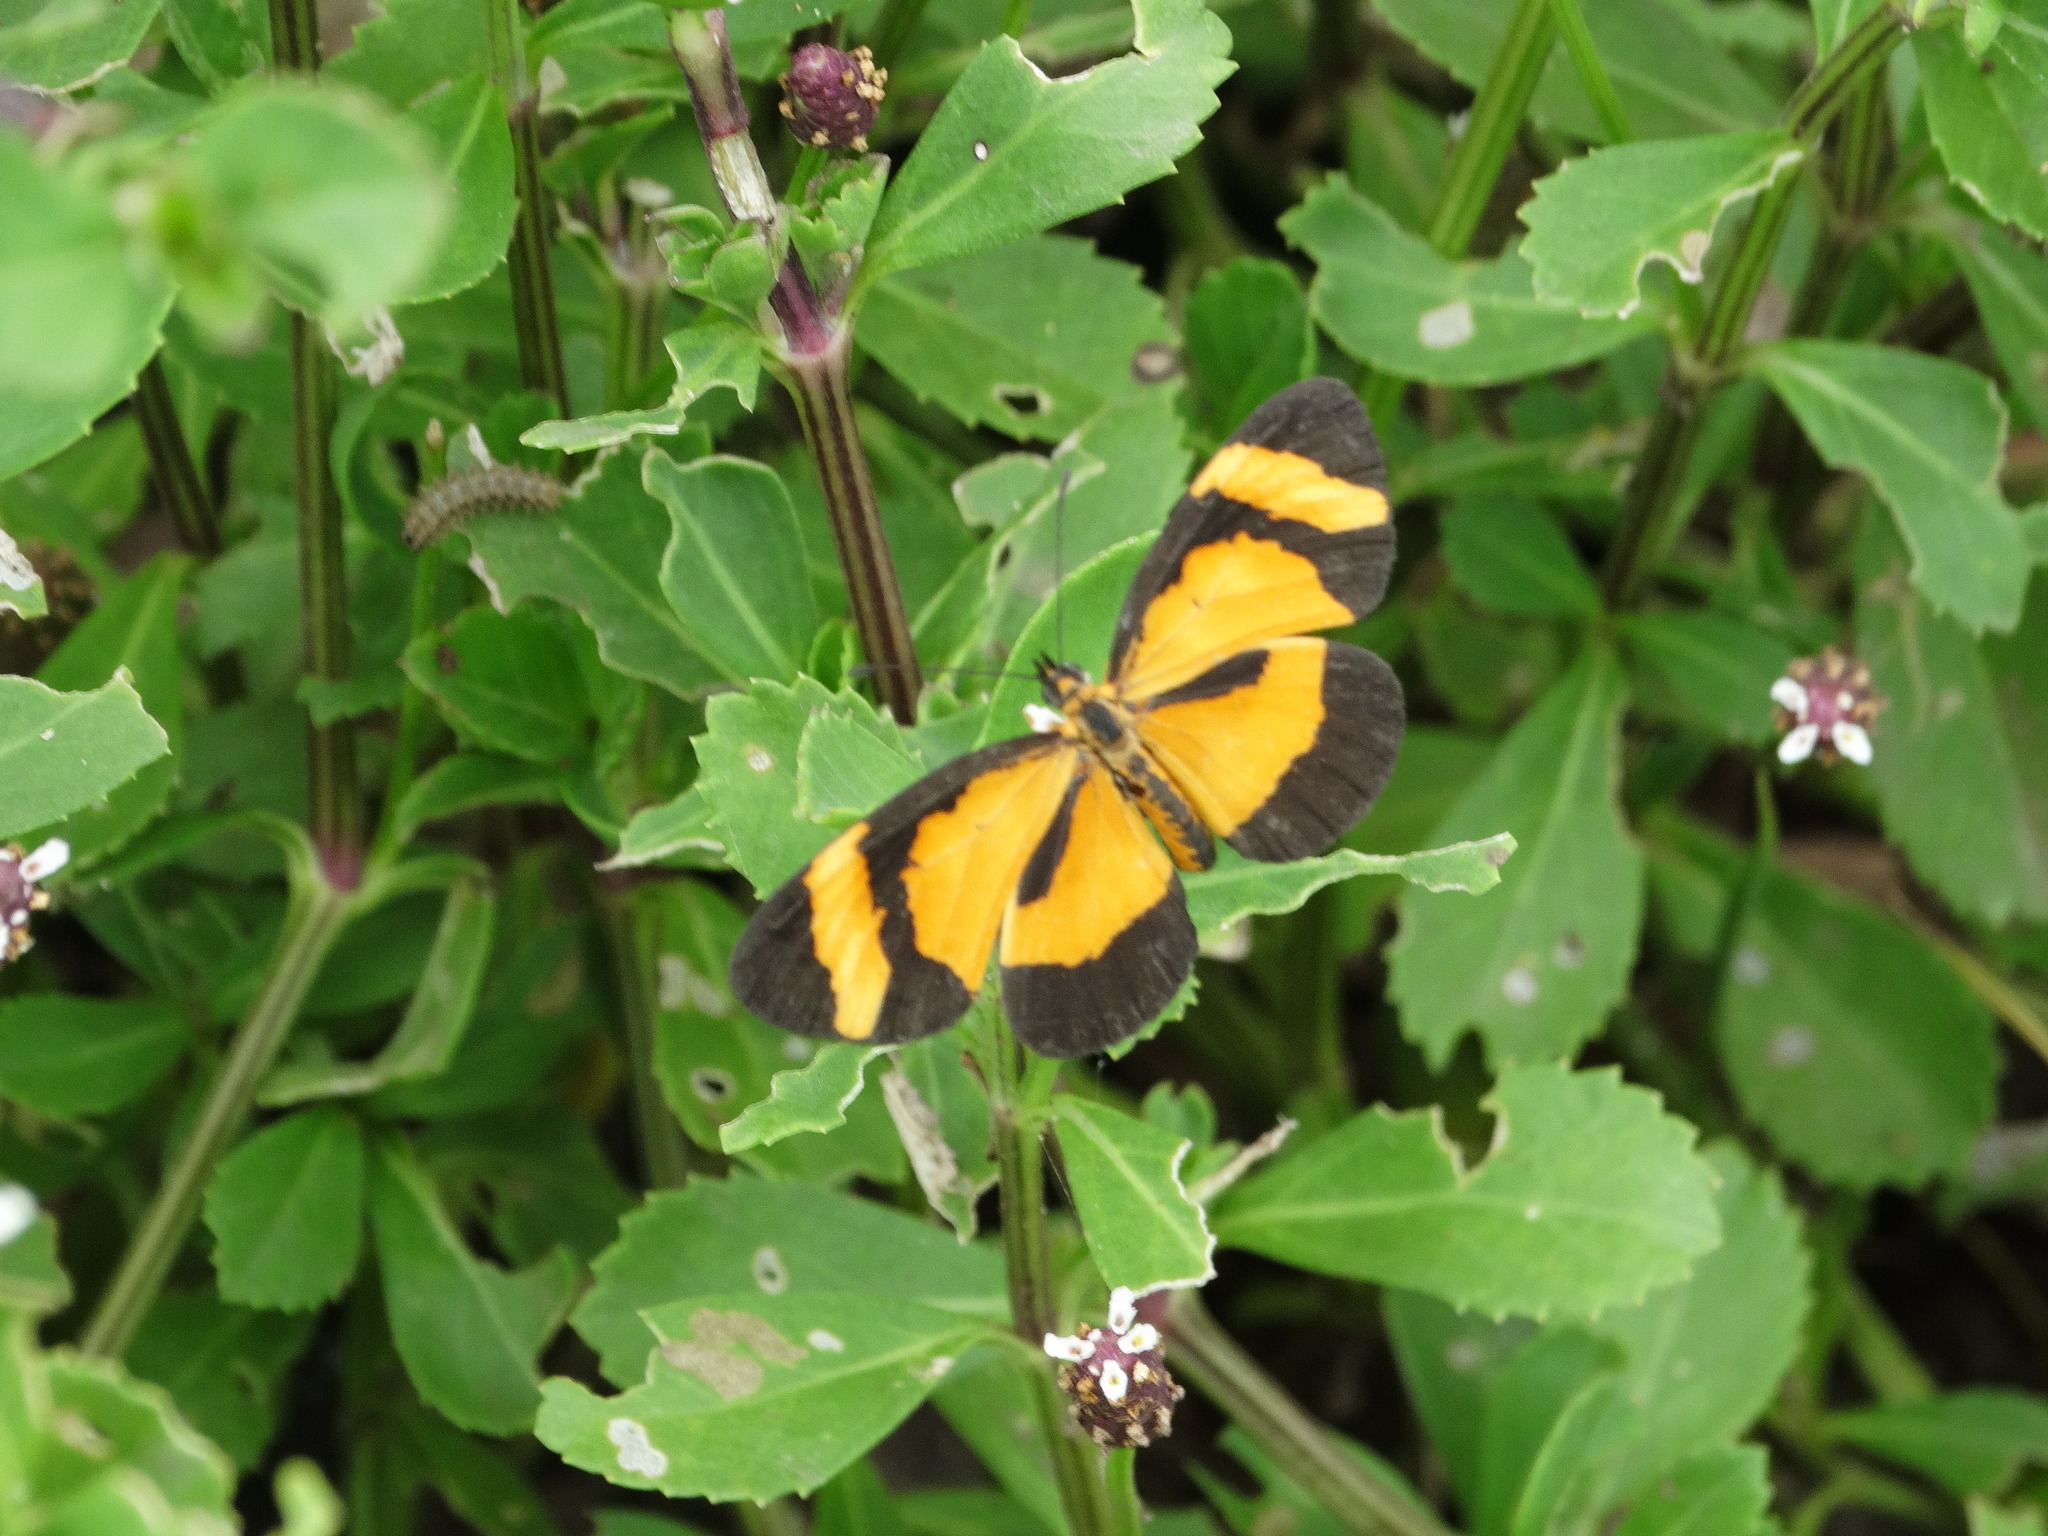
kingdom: Animalia
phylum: Arthropoda
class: Insecta
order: Lepidoptera
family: Nymphalidae
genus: Microtia
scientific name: Microtia elva
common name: Elf
